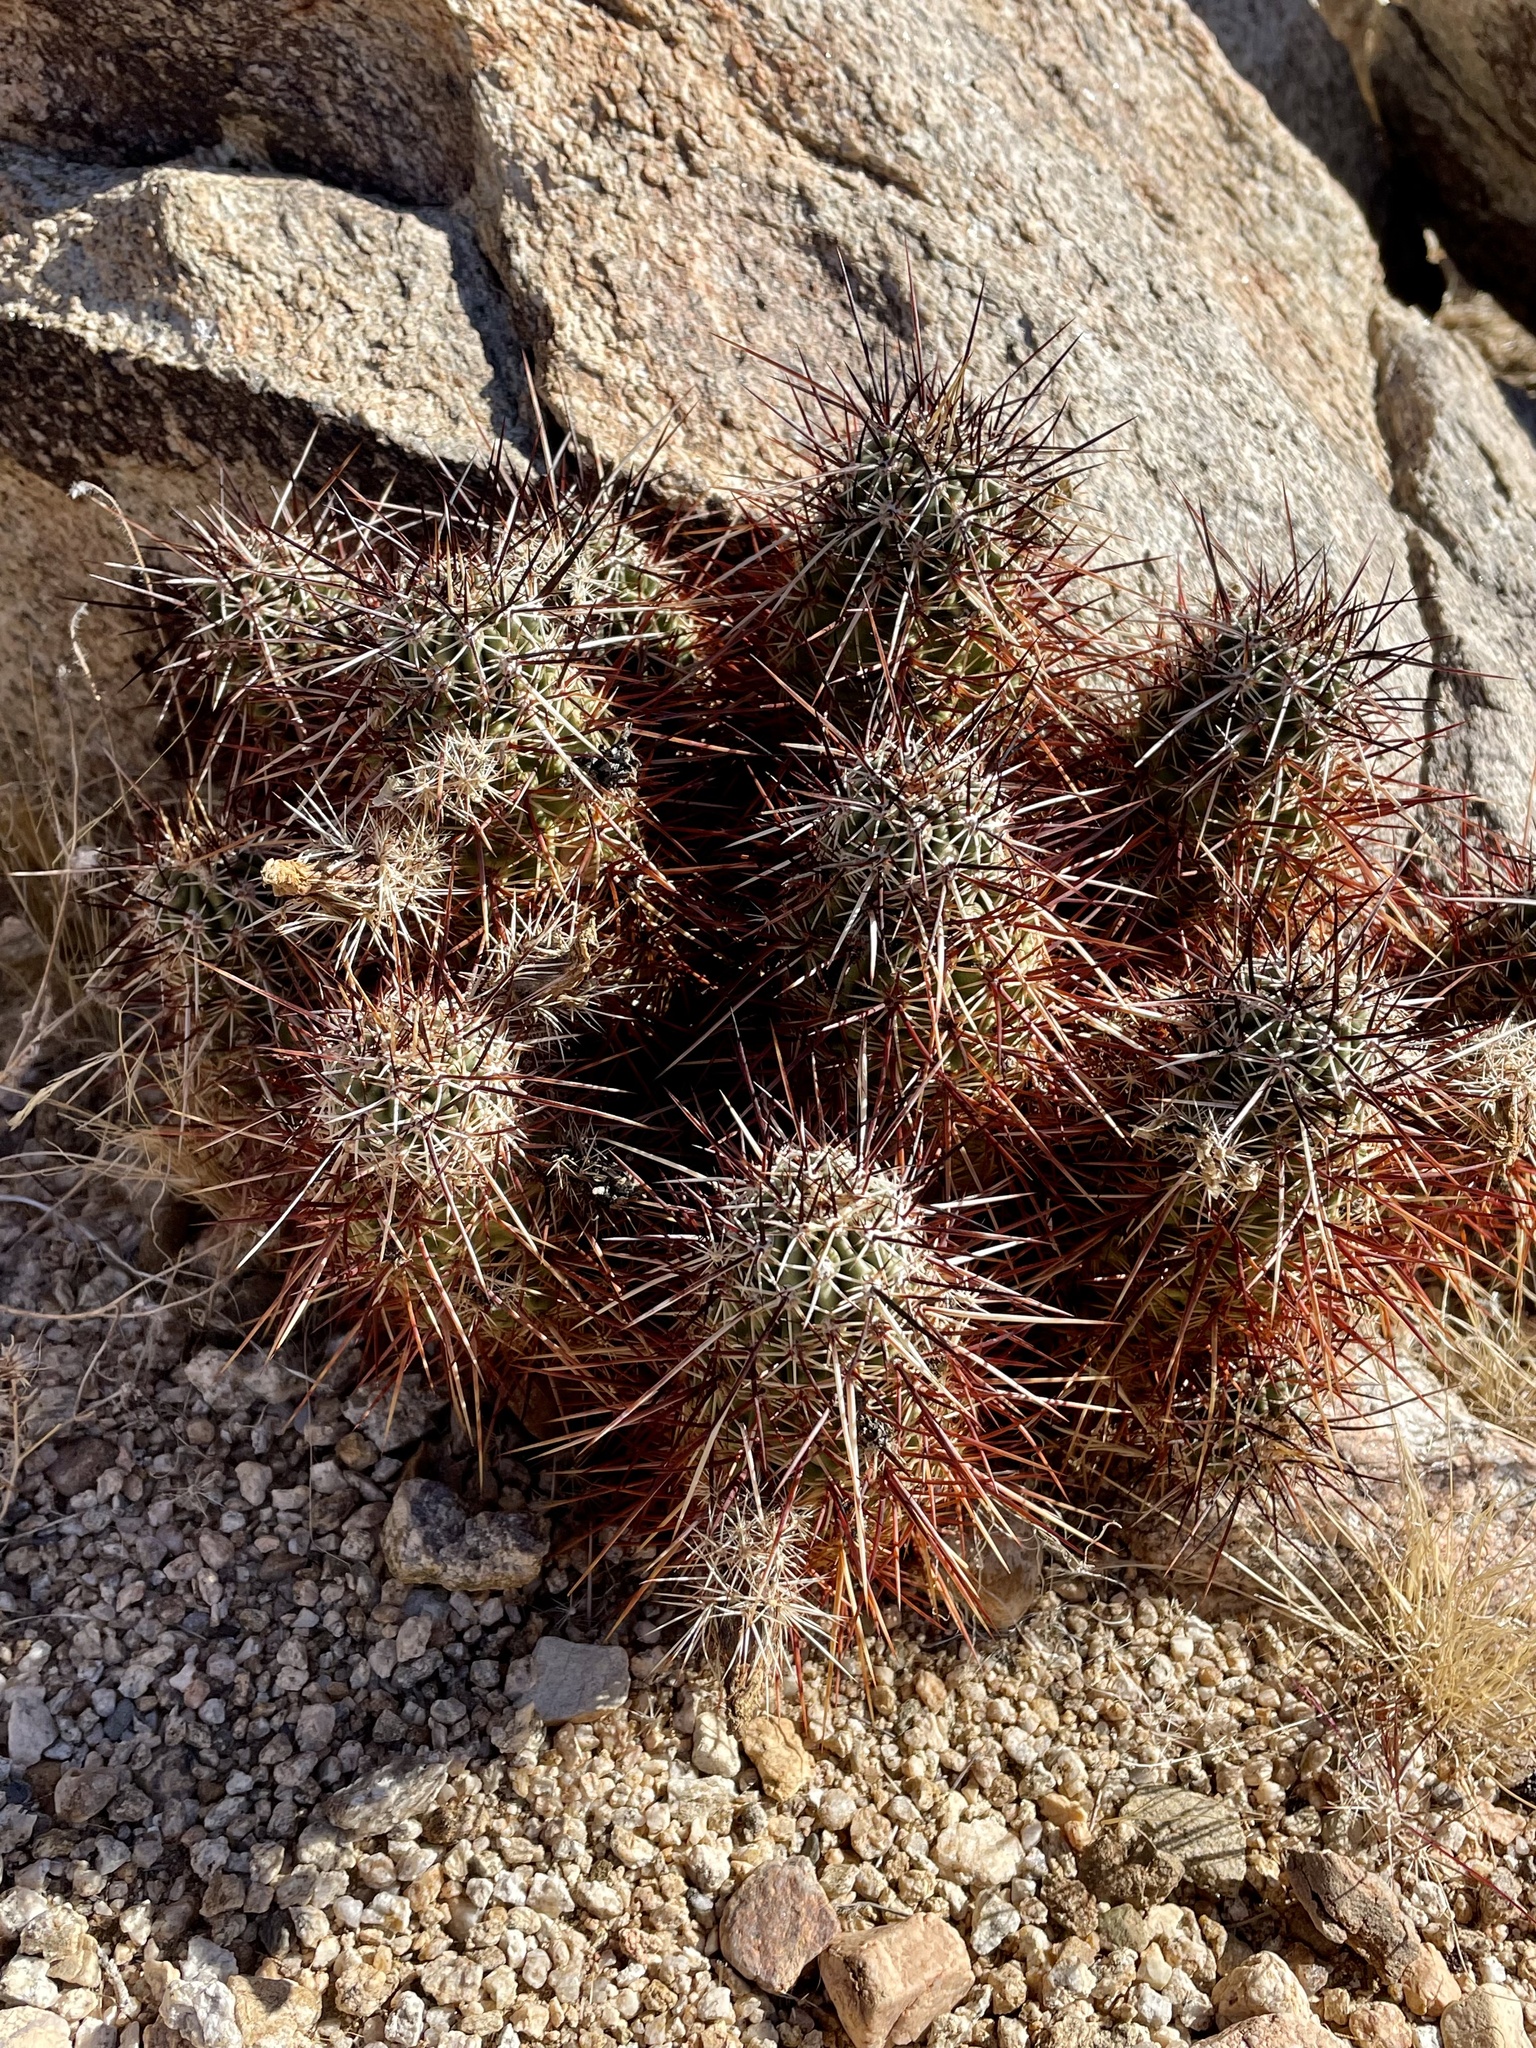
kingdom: Plantae
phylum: Tracheophyta
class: Magnoliopsida
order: Caryophyllales
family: Cactaceae
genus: Echinocereus
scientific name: Echinocereus engelmannii
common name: Engelmann's hedgehog cactus
